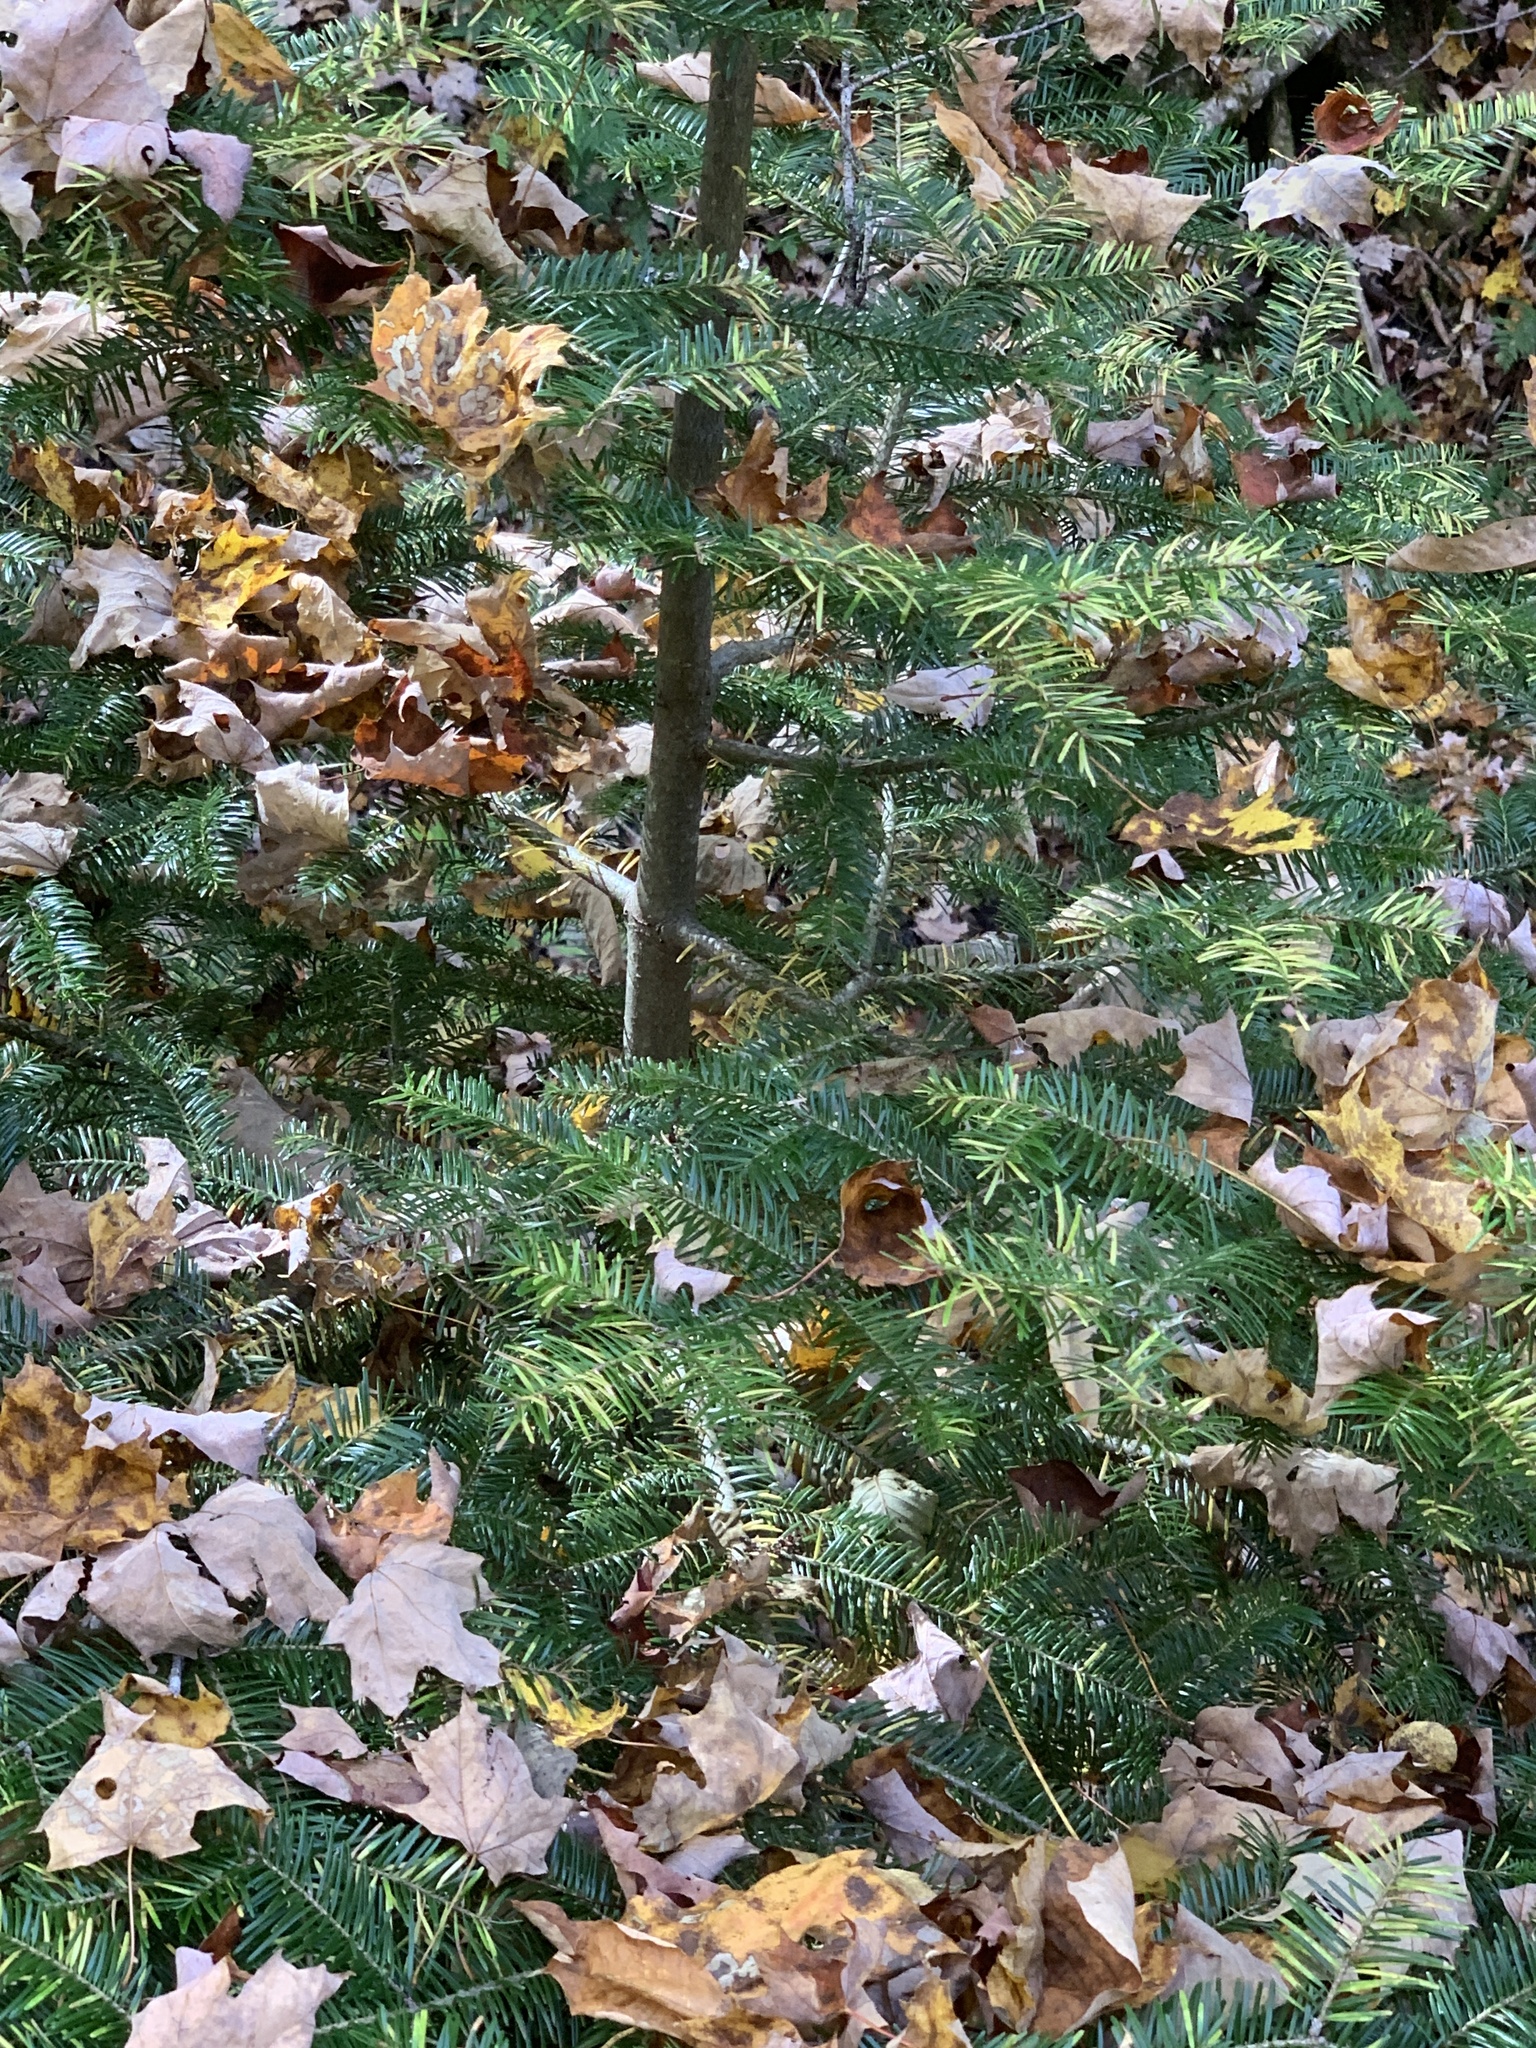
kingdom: Plantae
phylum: Tracheophyta
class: Pinopsida
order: Pinales
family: Pinaceae
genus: Abies
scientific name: Abies balsamea
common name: Balsam fir
